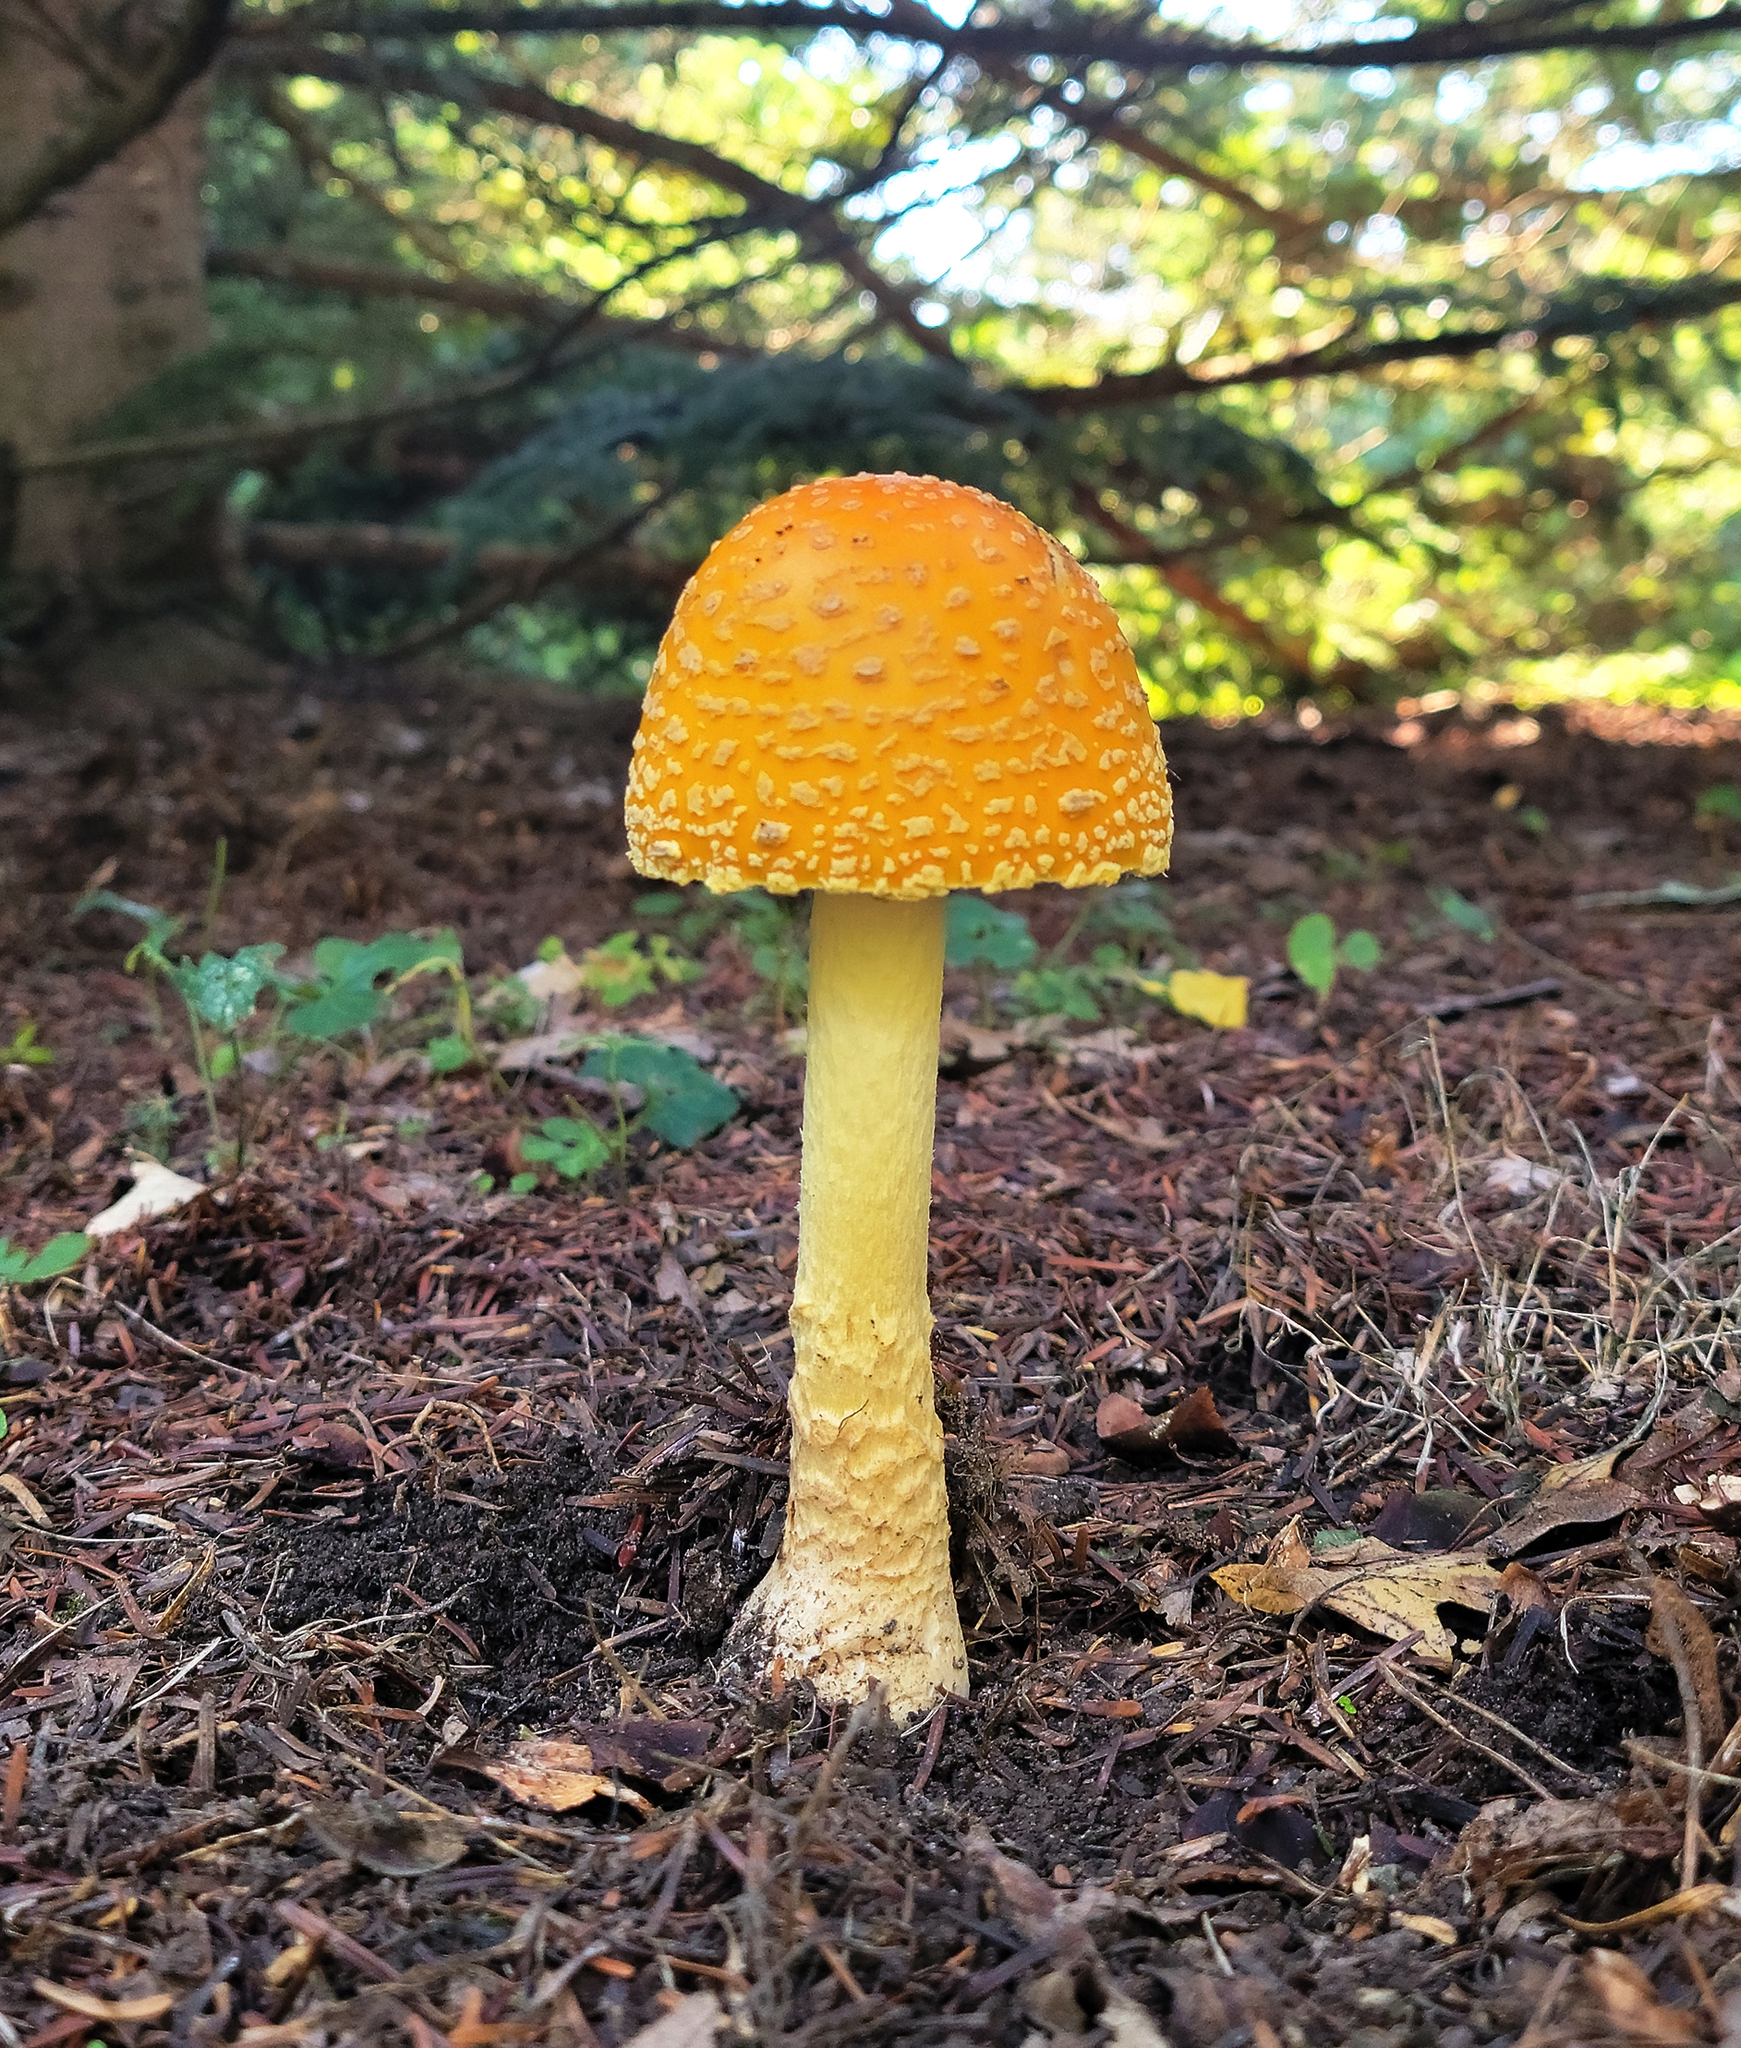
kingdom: Fungi
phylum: Basidiomycota
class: Agaricomycetes
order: Agaricales
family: Amanitaceae
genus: Amanita
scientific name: Amanita flavoconia
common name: Yellow patches
